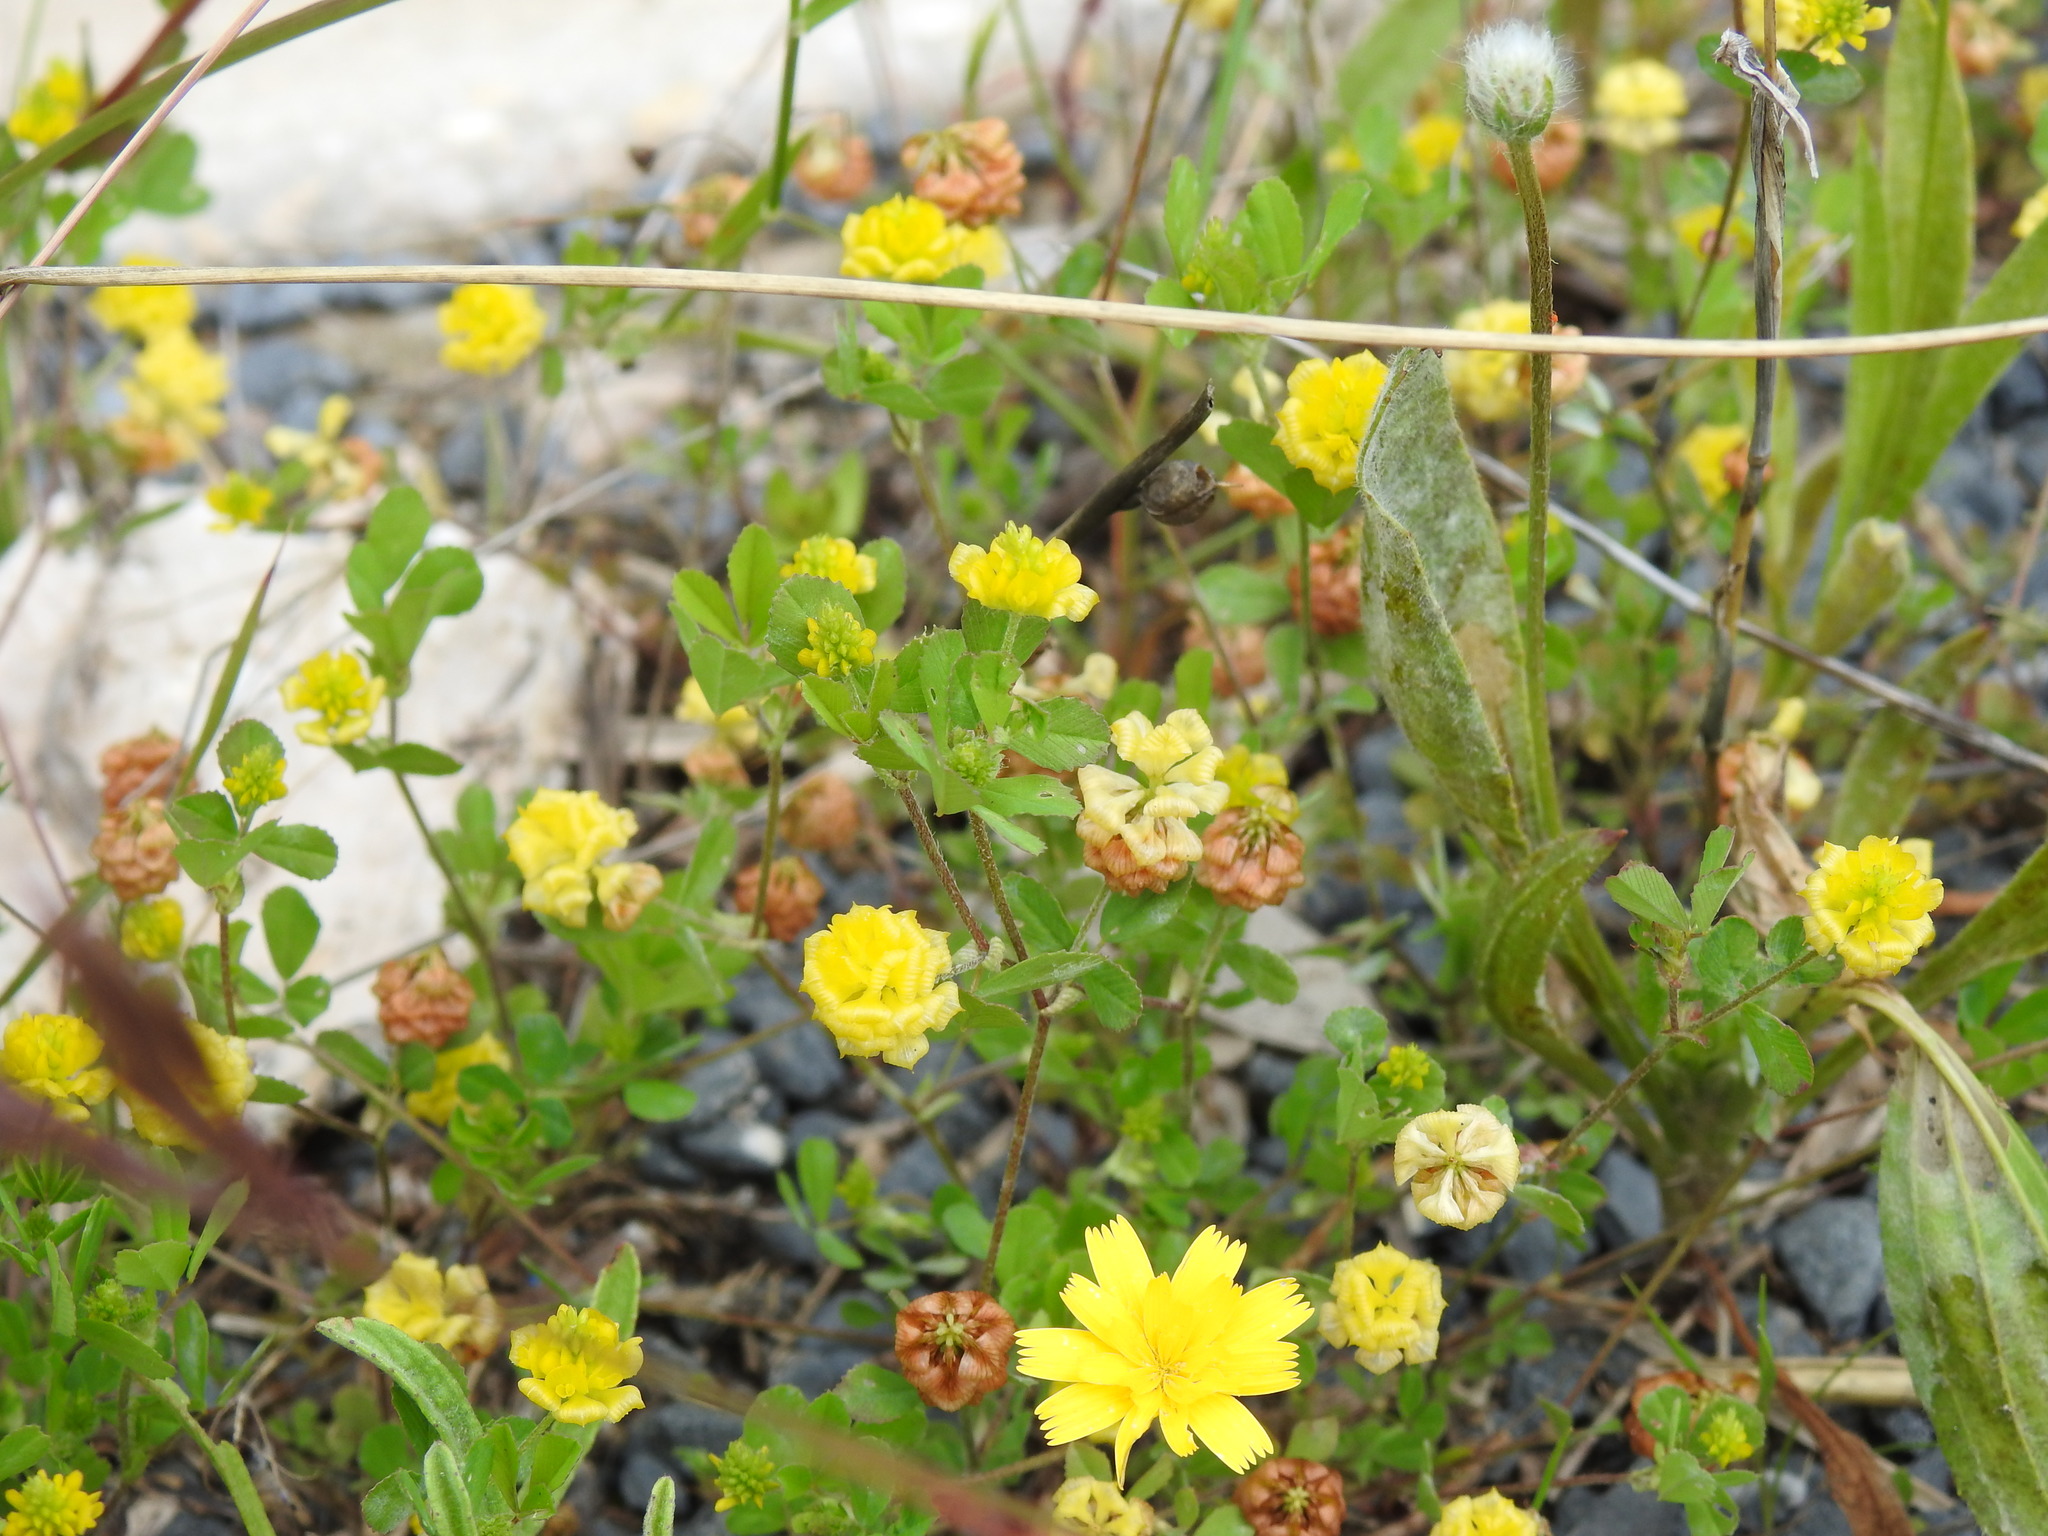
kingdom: Plantae
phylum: Tracheophyta
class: Magnoliopsida
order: Fabales
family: Fabaceae
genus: Trifolium
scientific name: Trifolium campestre
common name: Field clover
